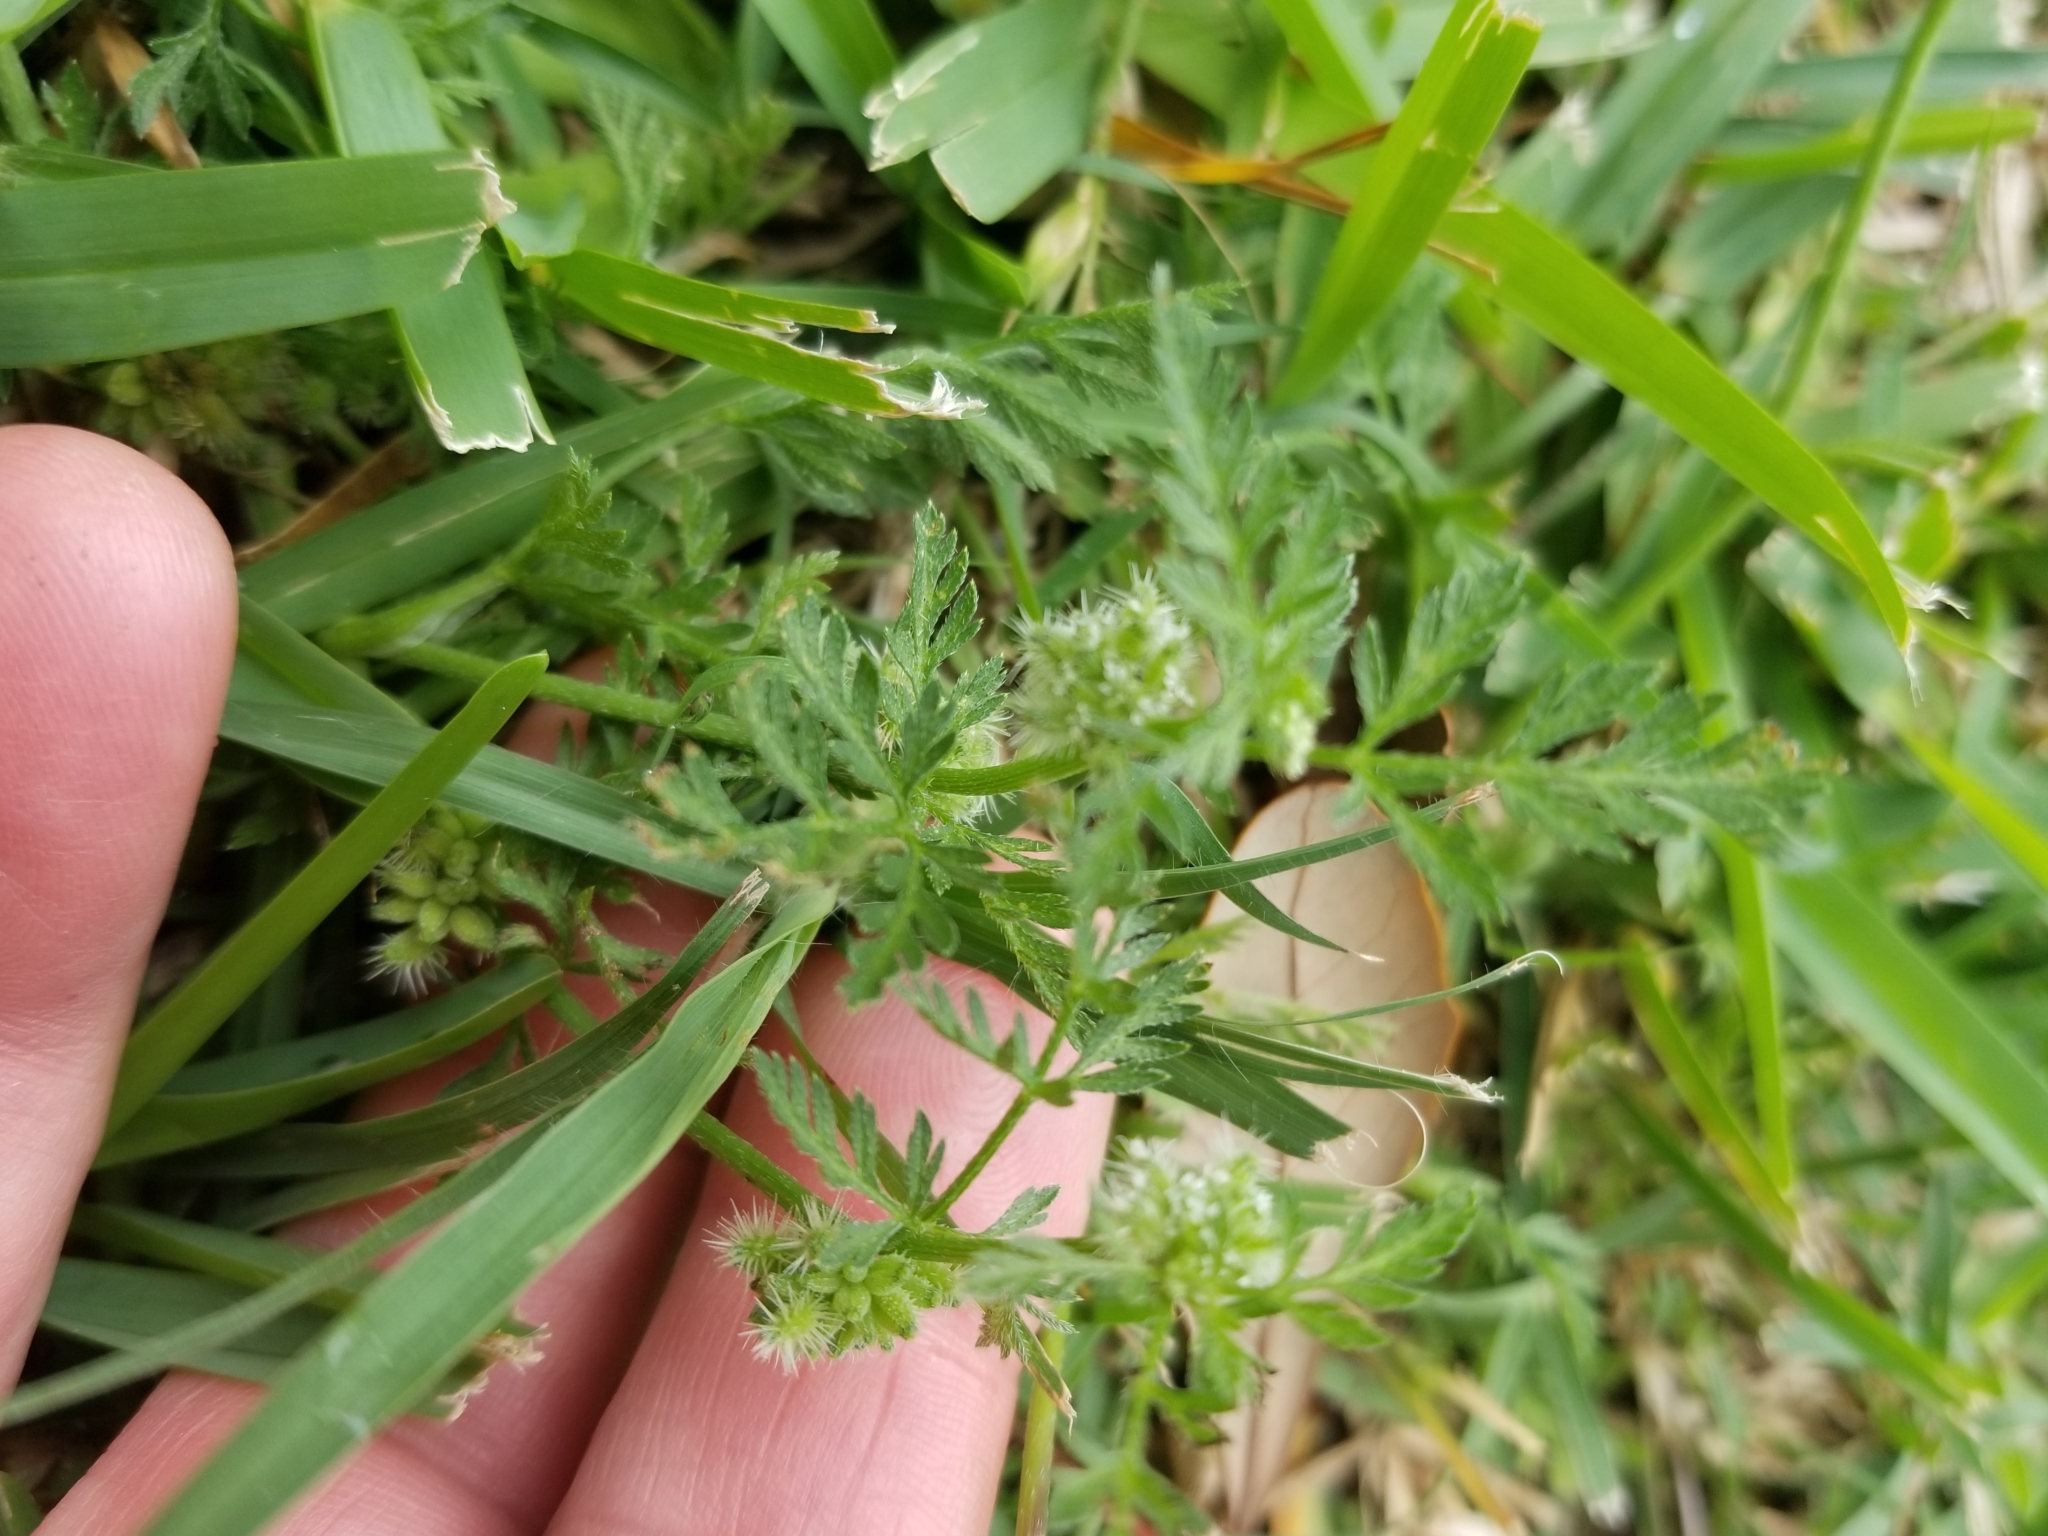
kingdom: Plantae
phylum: Tracheophyta
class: Magnoliopsida
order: Apiales
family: Apiaceae
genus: Torilis
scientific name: Torilis nodosa
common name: Knotted hedge-parsley
